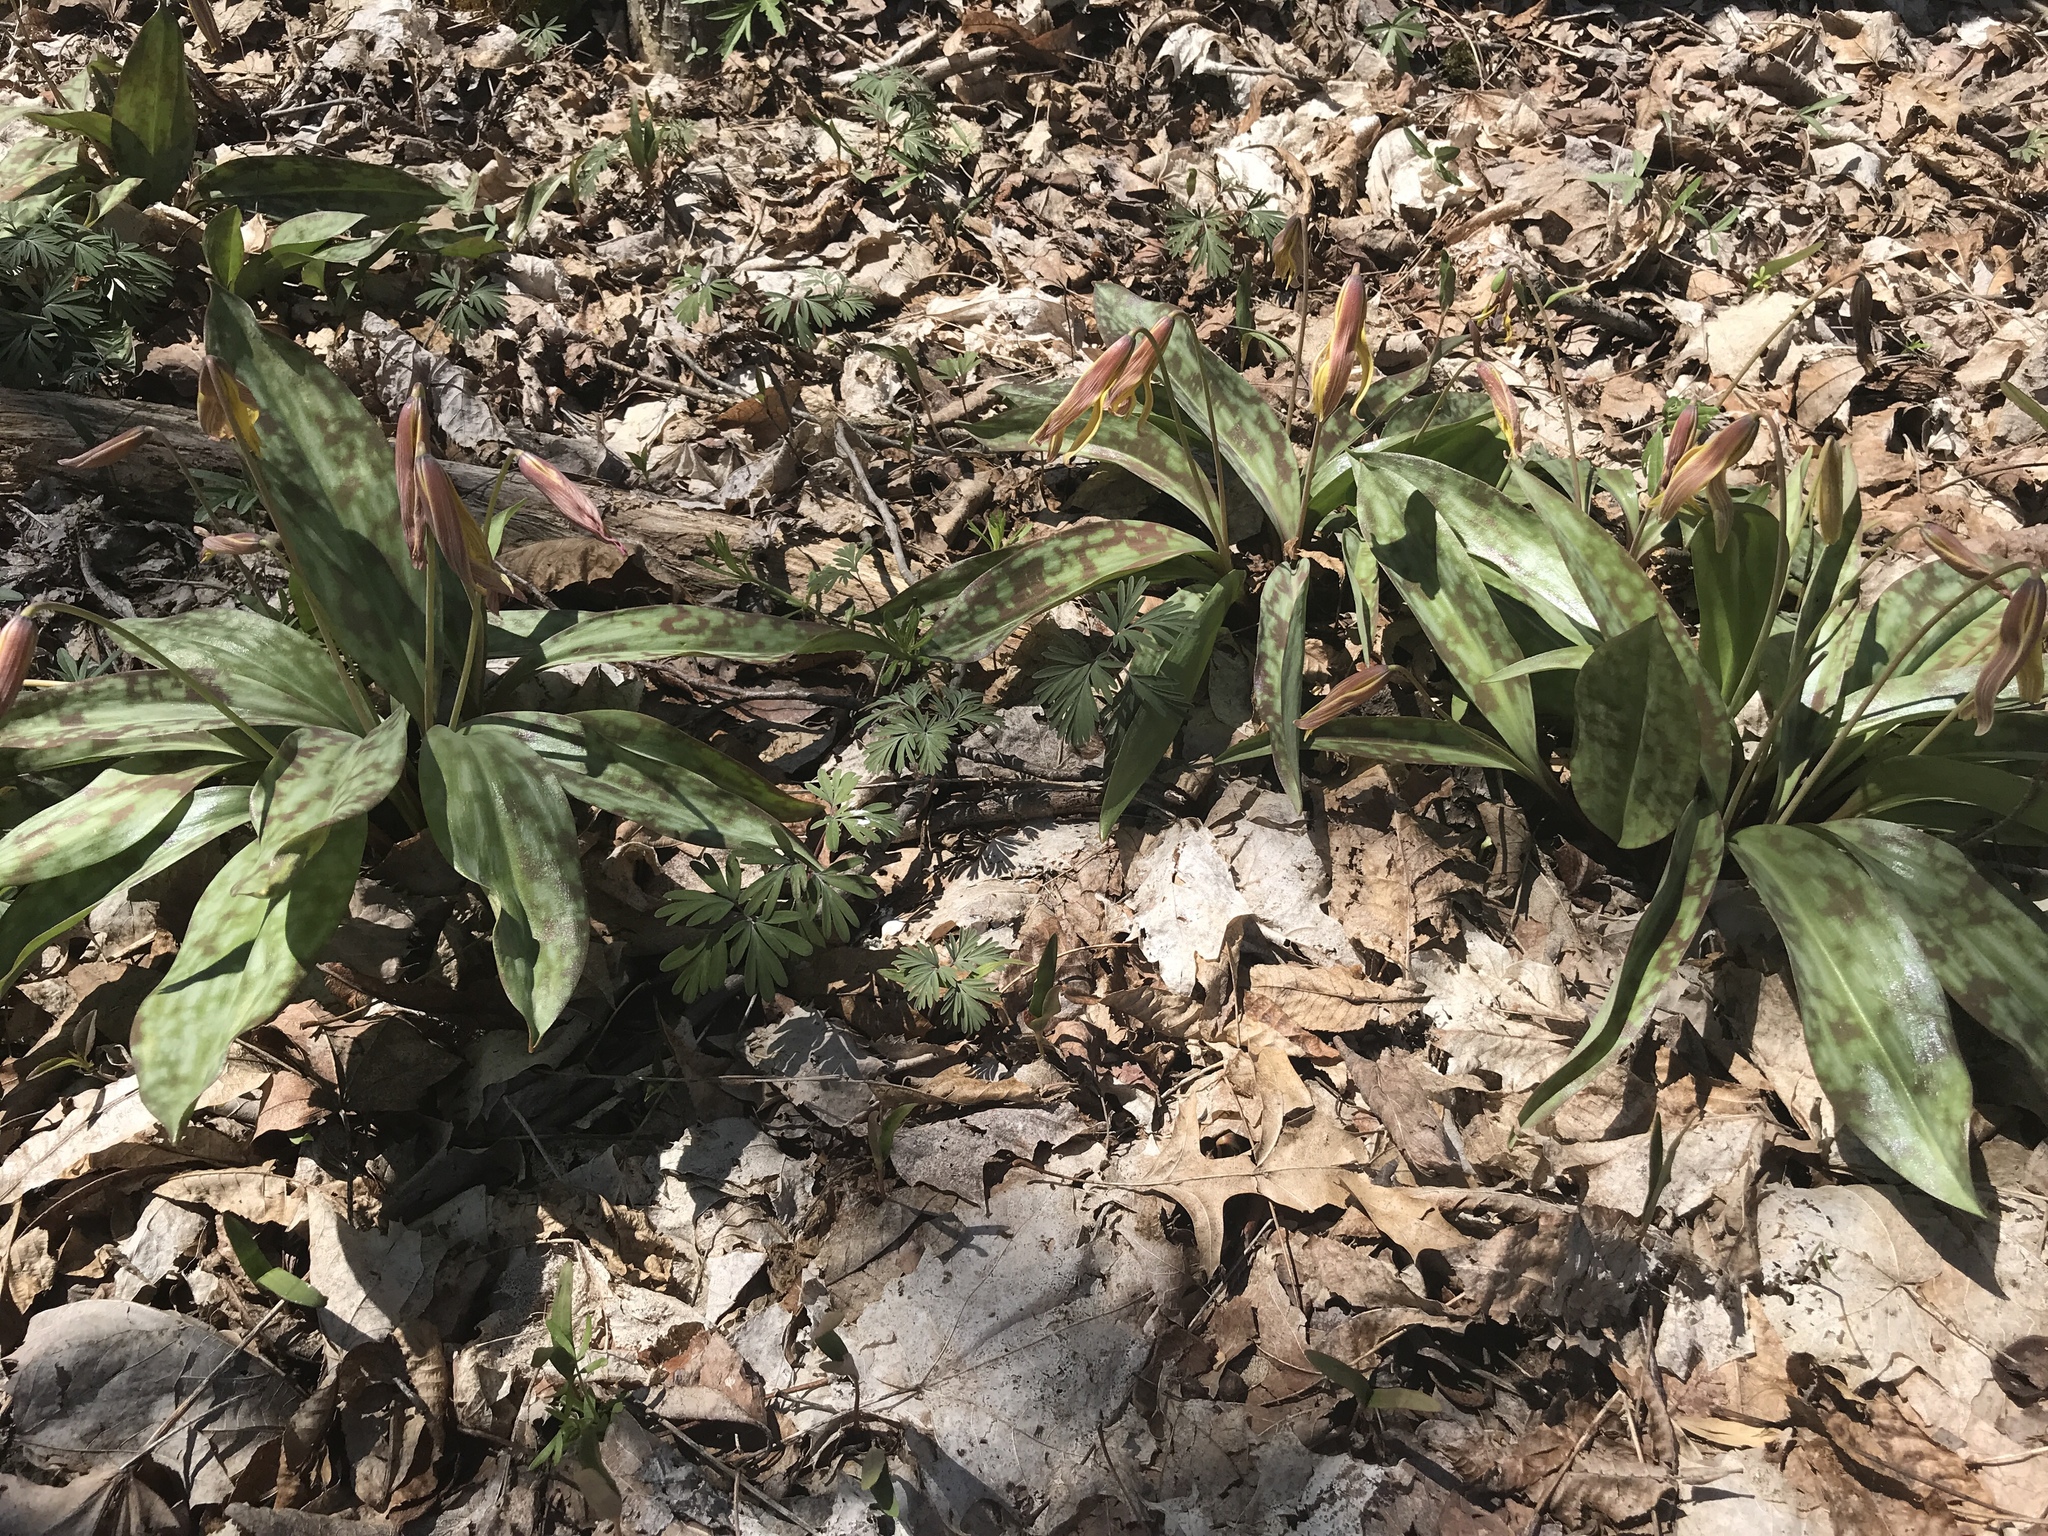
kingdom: Plantae
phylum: Tracheophyta
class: Liliopsida
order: Liliales
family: Liliaceae
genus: Erythronium
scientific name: Erythronium americanum
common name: Yellow adder's-tongue
